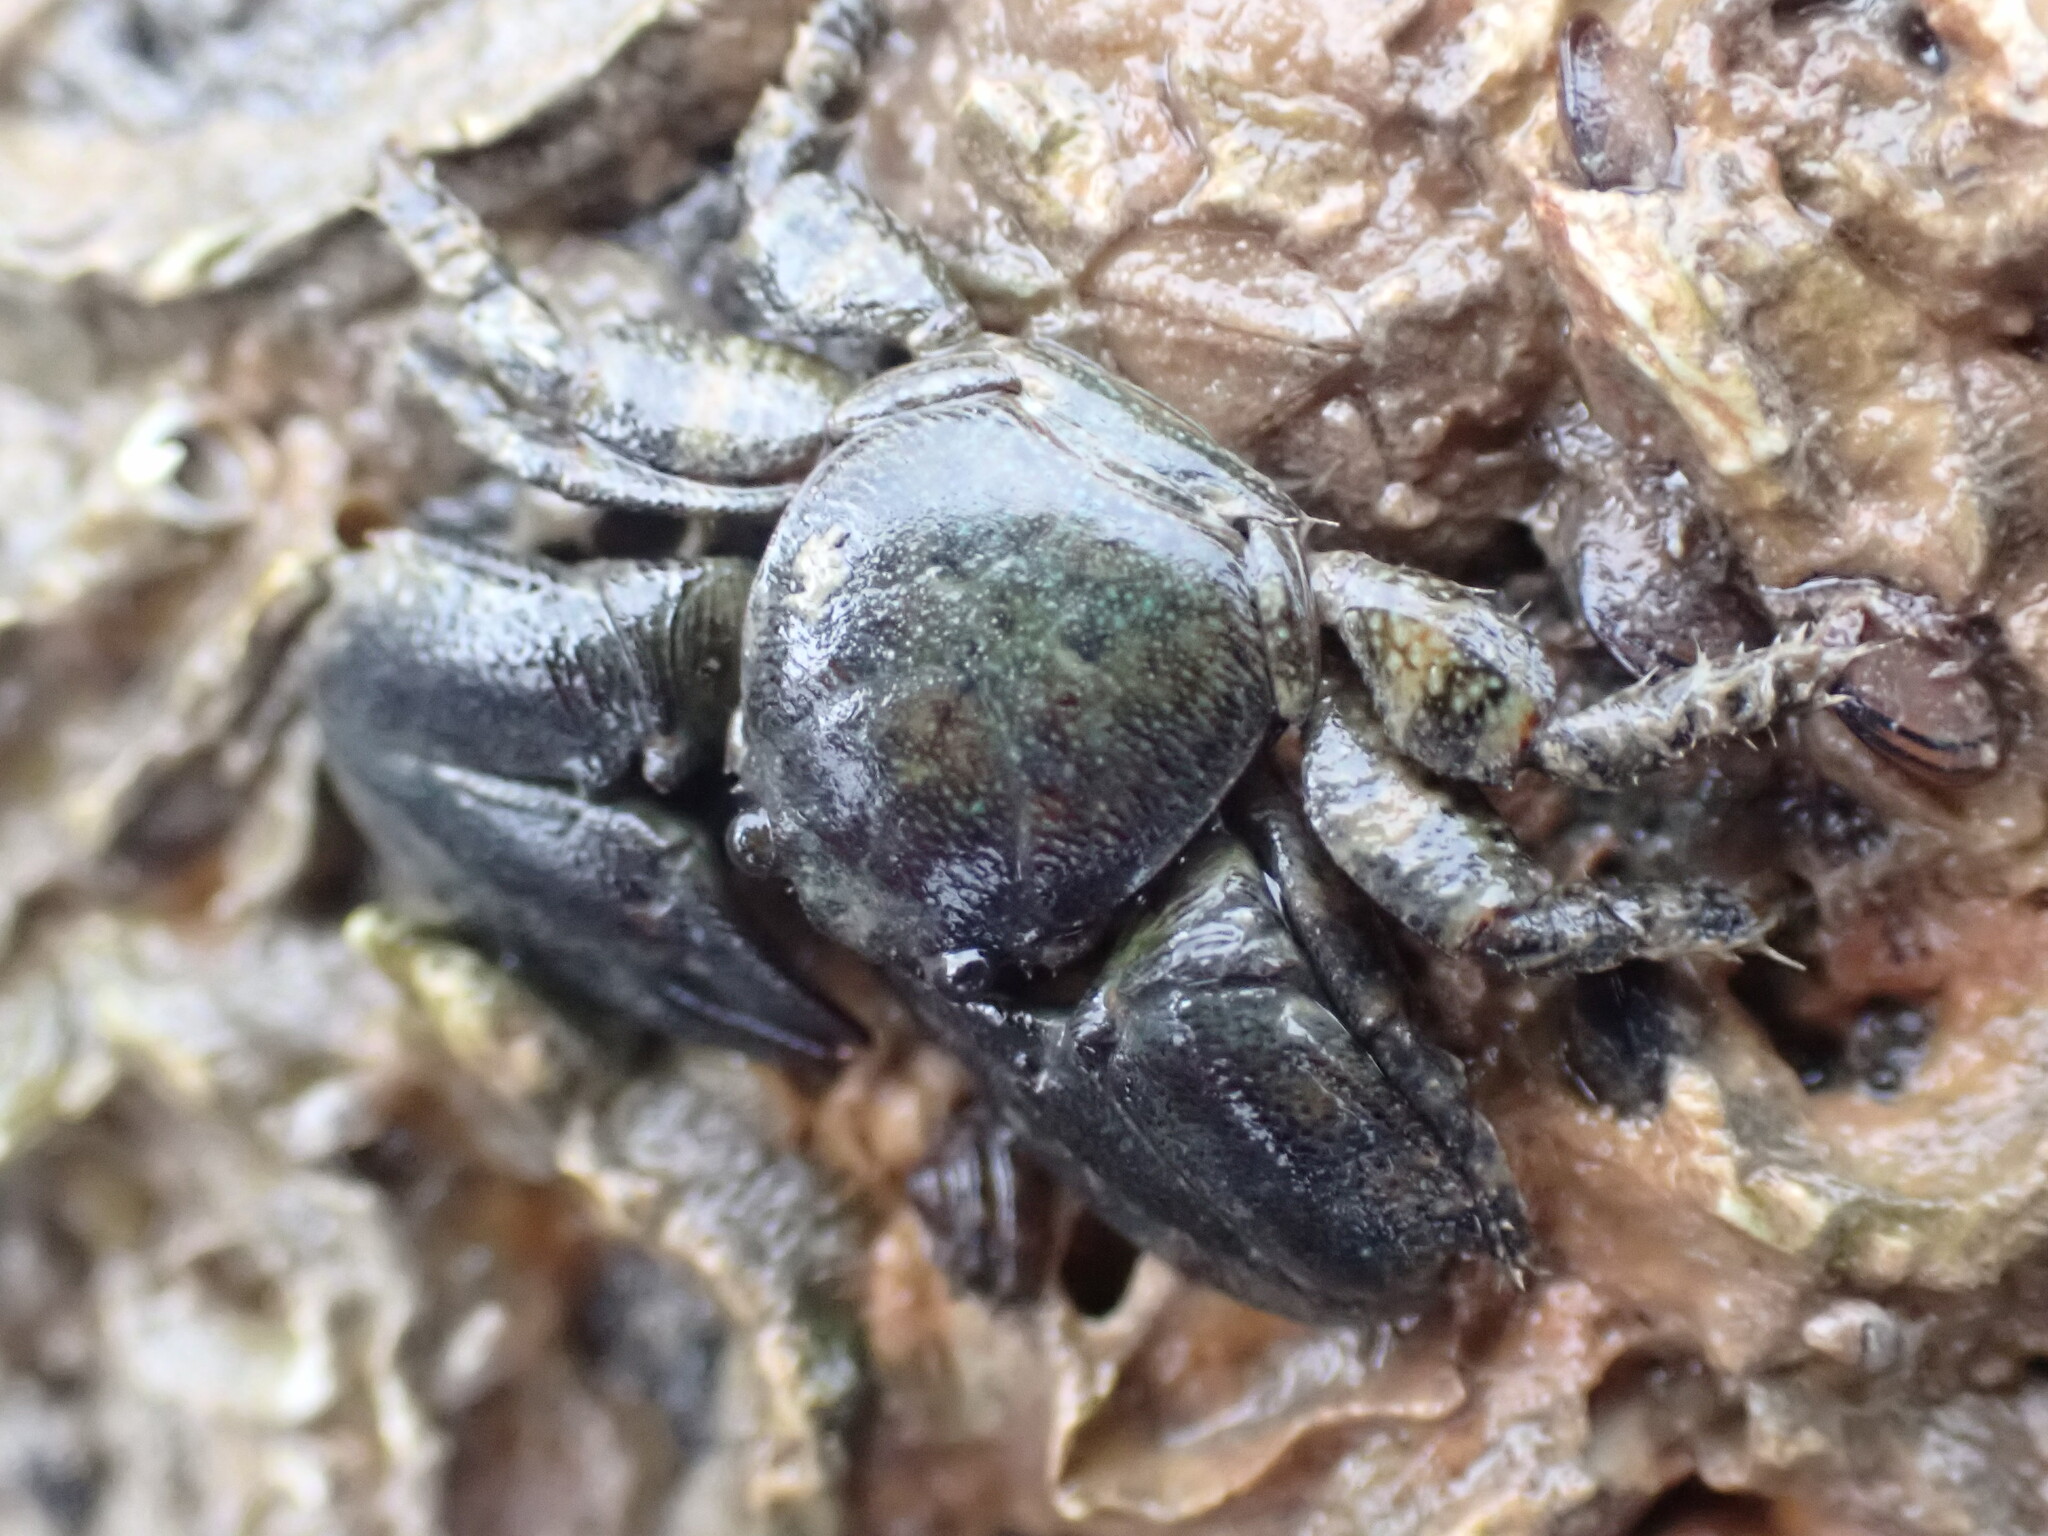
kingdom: Animalia
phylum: Arthropoda
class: Malacostraca
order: Decapoda
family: Porcellanidae
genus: Petrolisthes
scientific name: Petrolisthes elongatus
